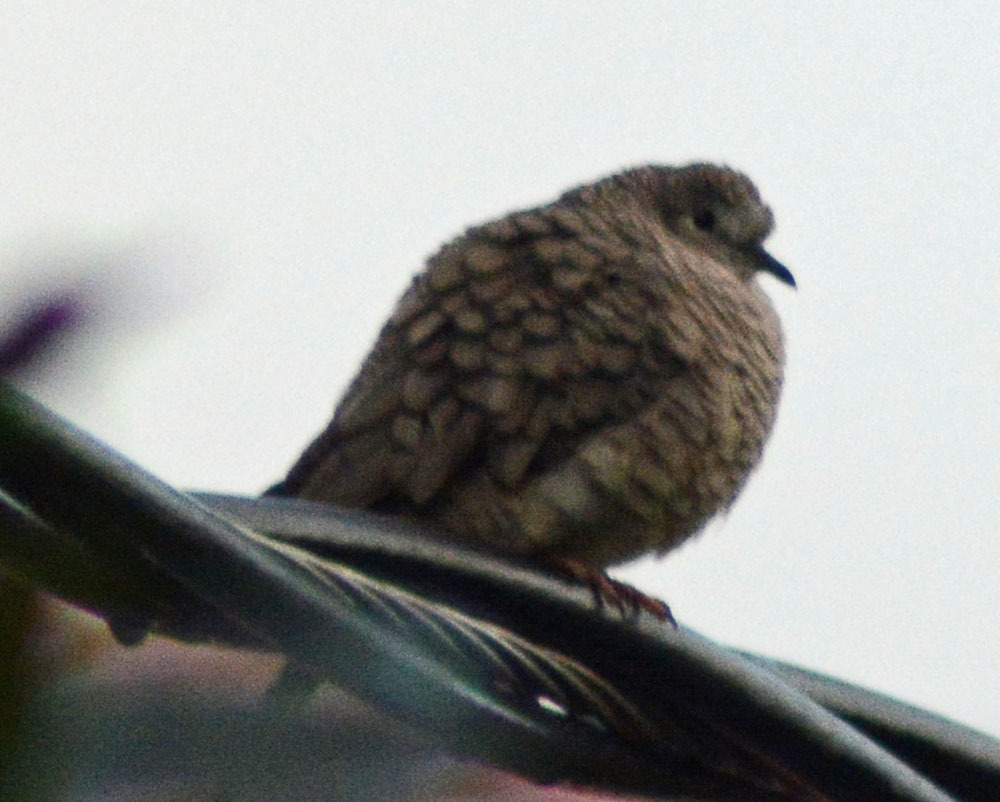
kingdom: Animalia
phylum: Chordata
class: Aves
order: Columbiformes
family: Columbidae
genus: Columbina
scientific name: Columbina inca
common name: Inca dove
